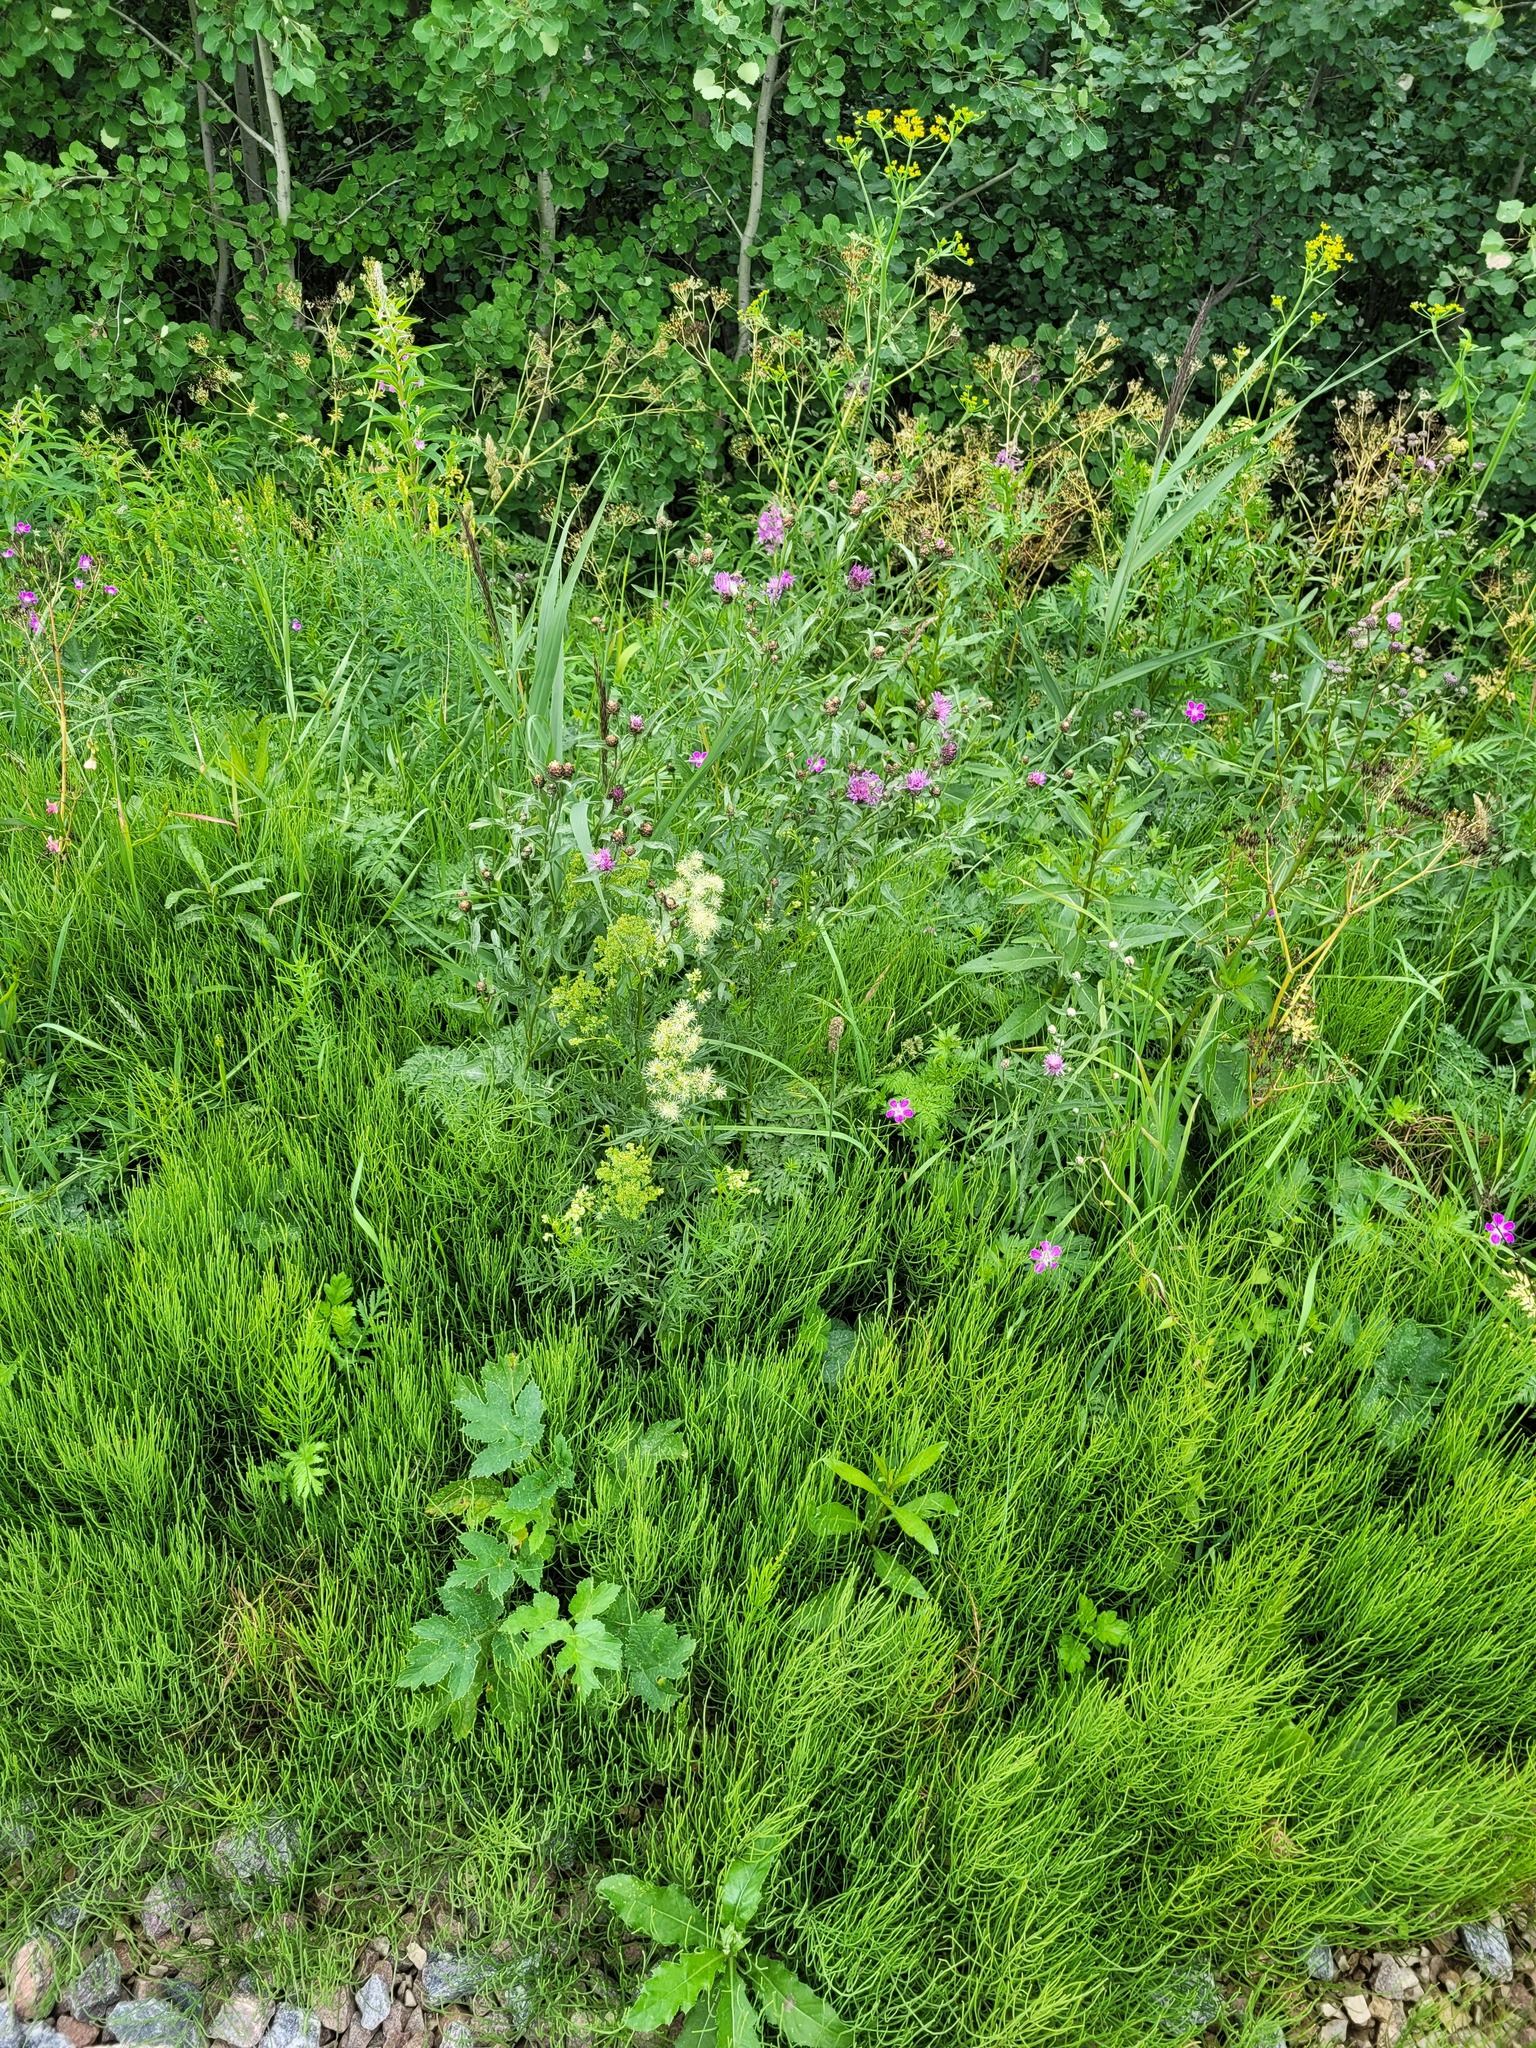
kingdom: Plantae
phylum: Tracheophyta
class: Magnoliopsida
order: Ranunculales
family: Ranunculaceae
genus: Thalictrum
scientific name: Thalictrum lucidum
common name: Shining meadow-rue
